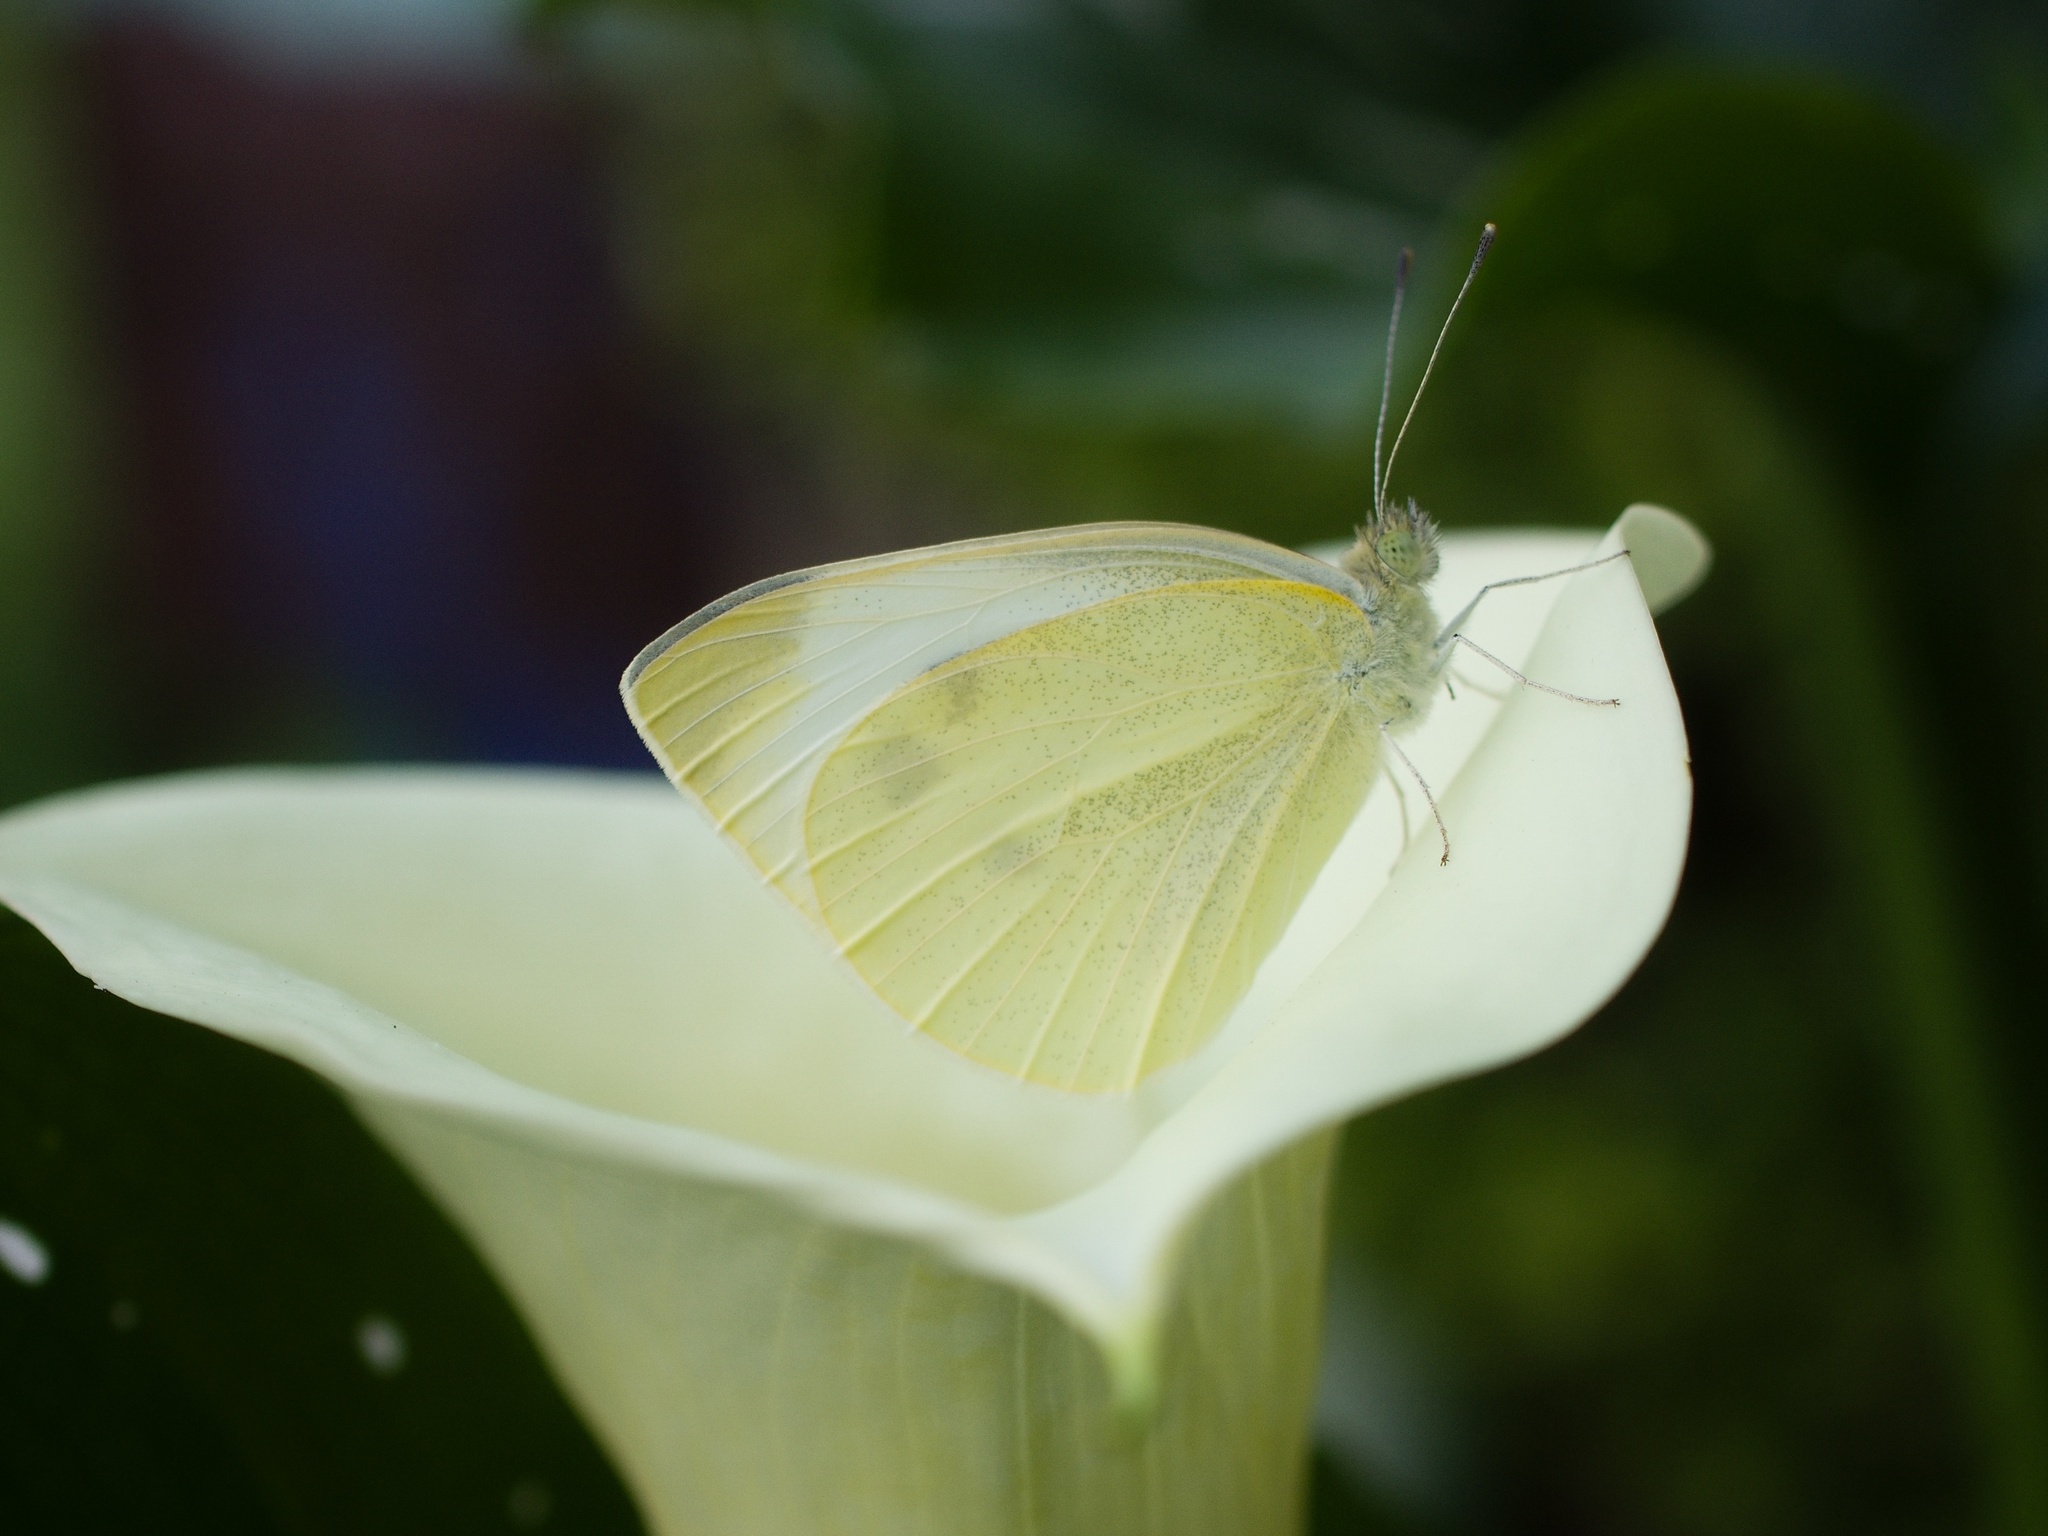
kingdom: Animalia
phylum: Arthropoda
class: Insecta
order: Lepidoptera
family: Pieridae
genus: Pieris
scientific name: Pieris rapae
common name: Small white
